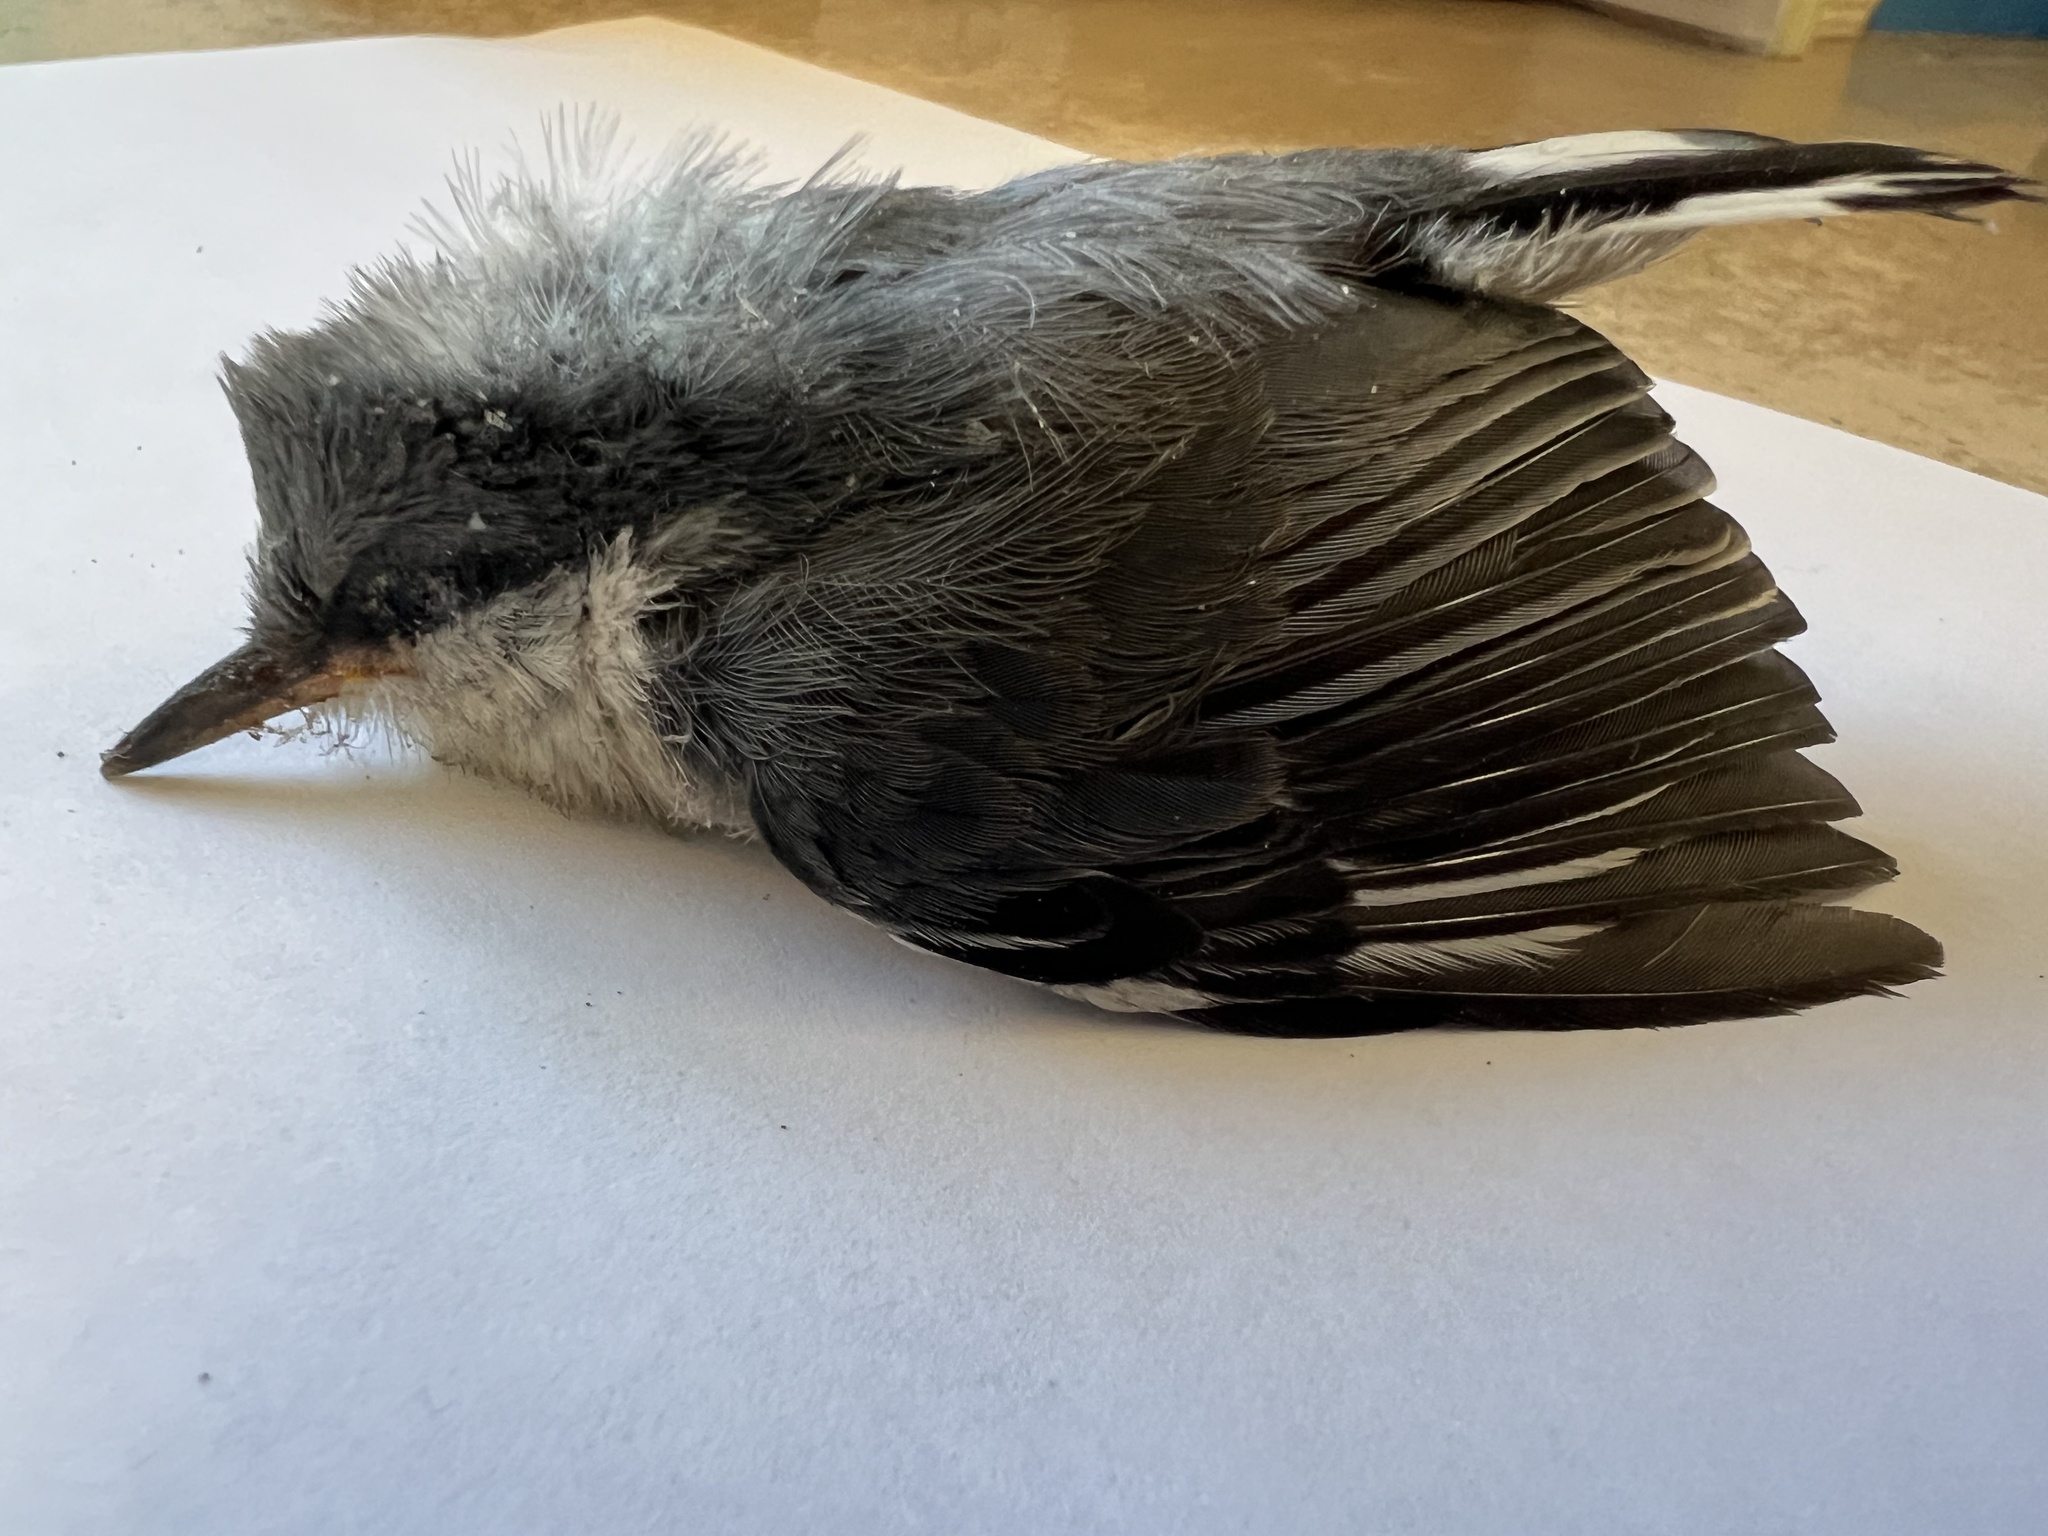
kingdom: Animalia
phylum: Chordata
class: Aves
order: Passeriformes
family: Sittidae
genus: Sitta
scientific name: Sitta pygmaea
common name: Pygmy nuthatch
